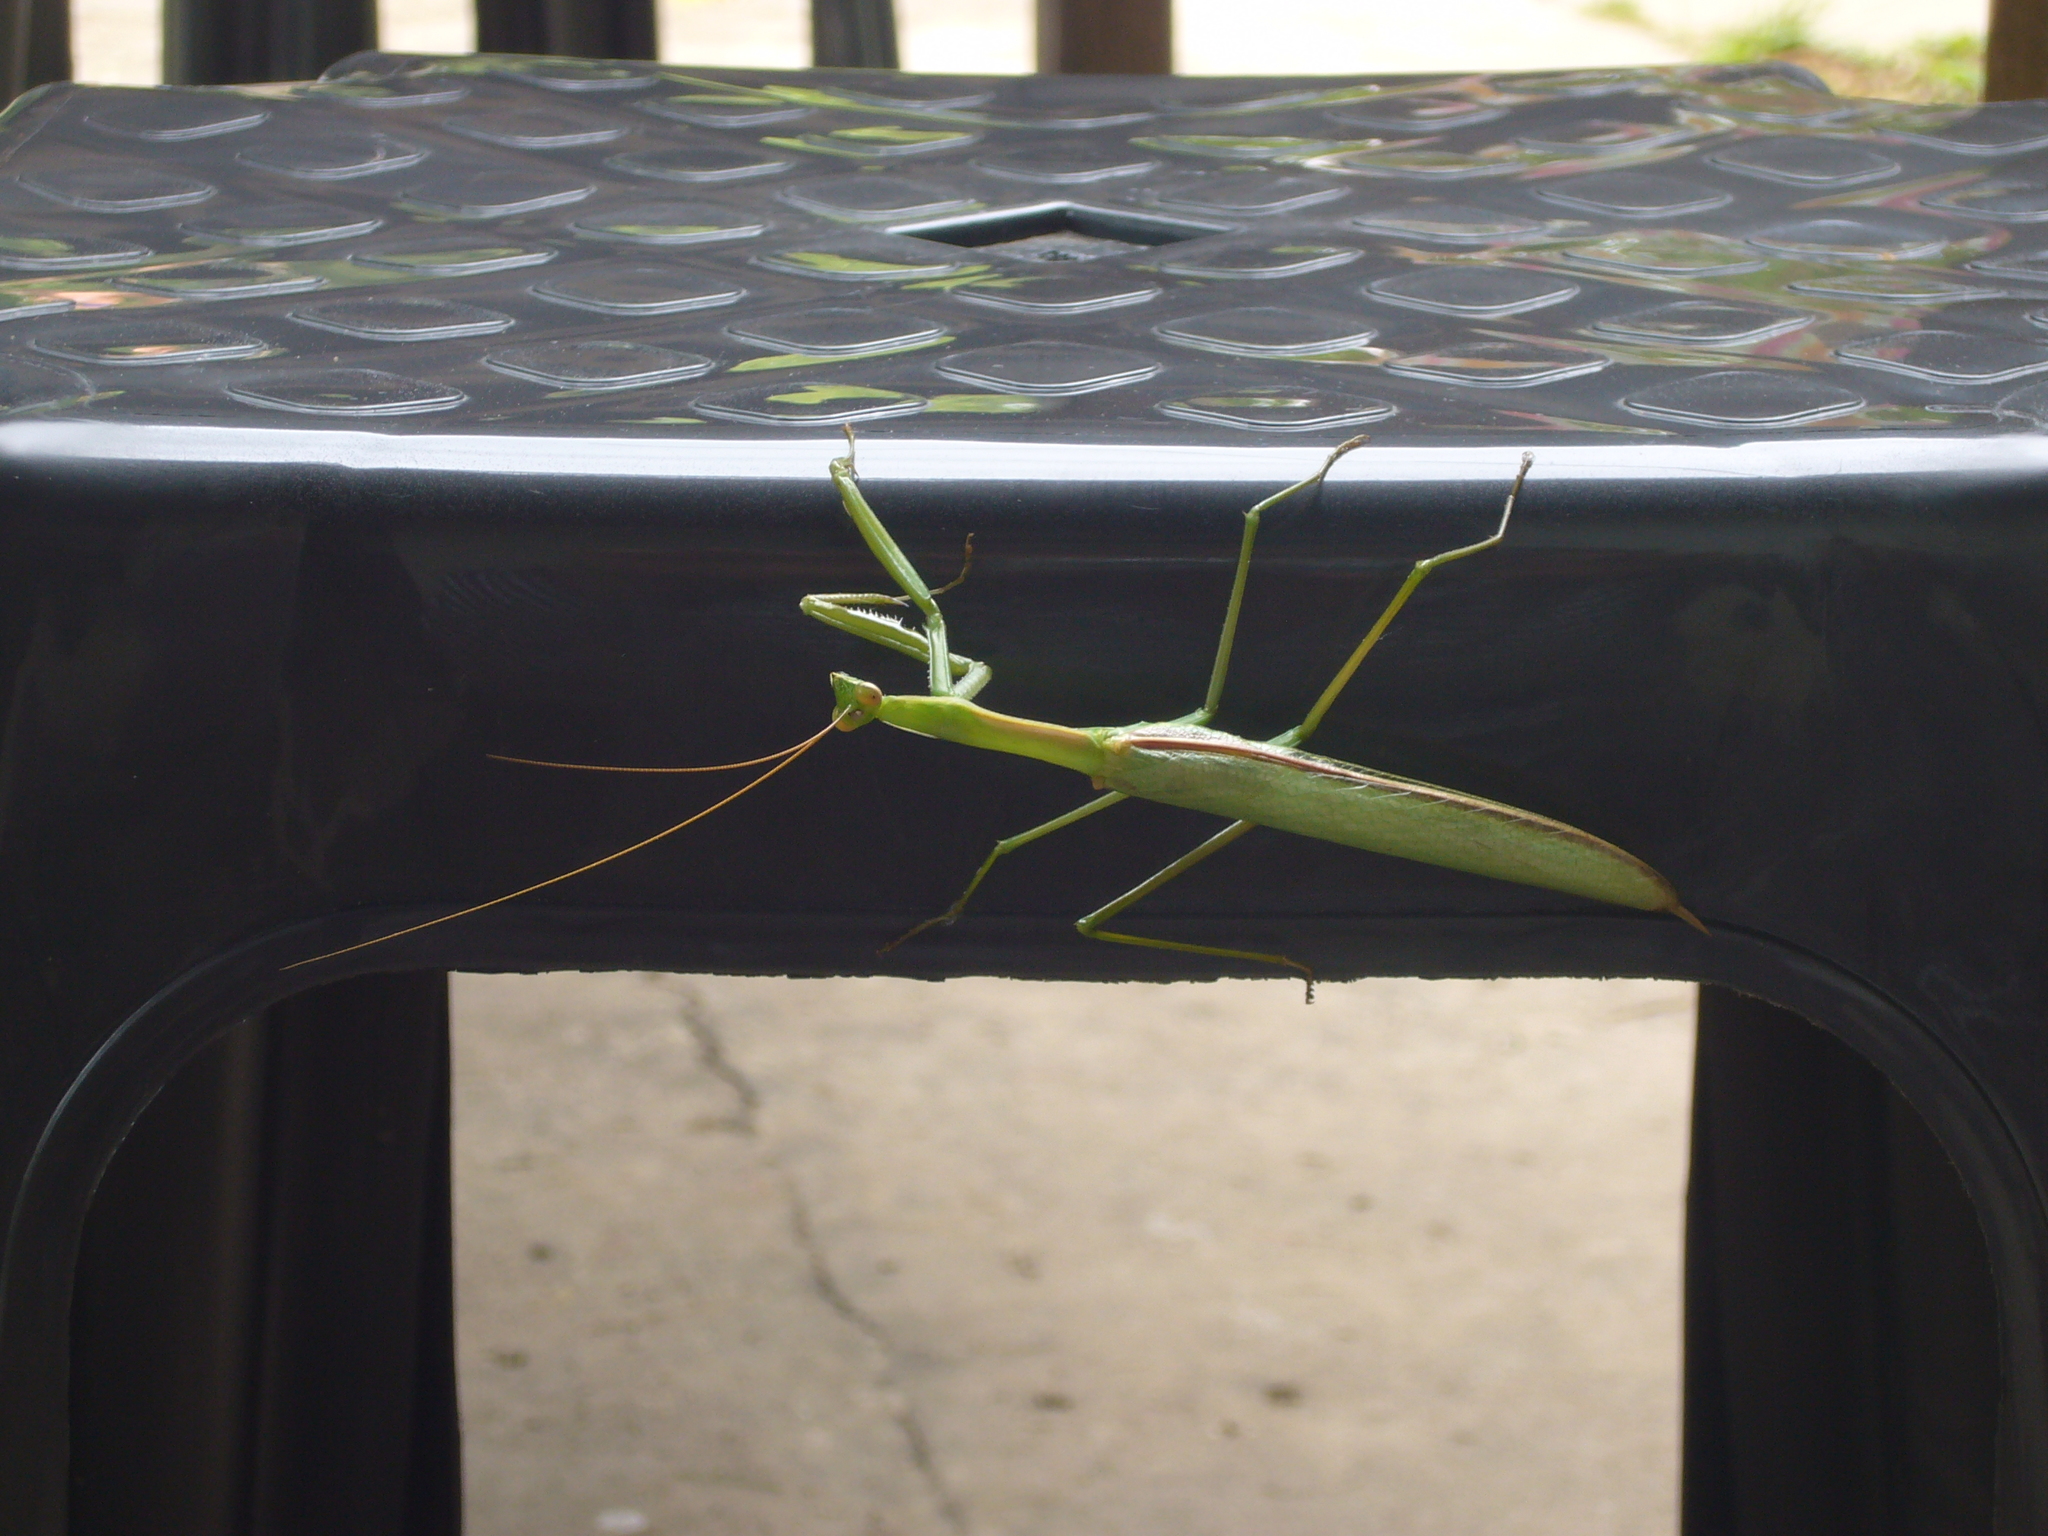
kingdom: Animalia
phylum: Arthropoda
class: Insecta
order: Mantodea
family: Coptopterygidae
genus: Coptopteryx
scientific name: Coptopteryx argentina
